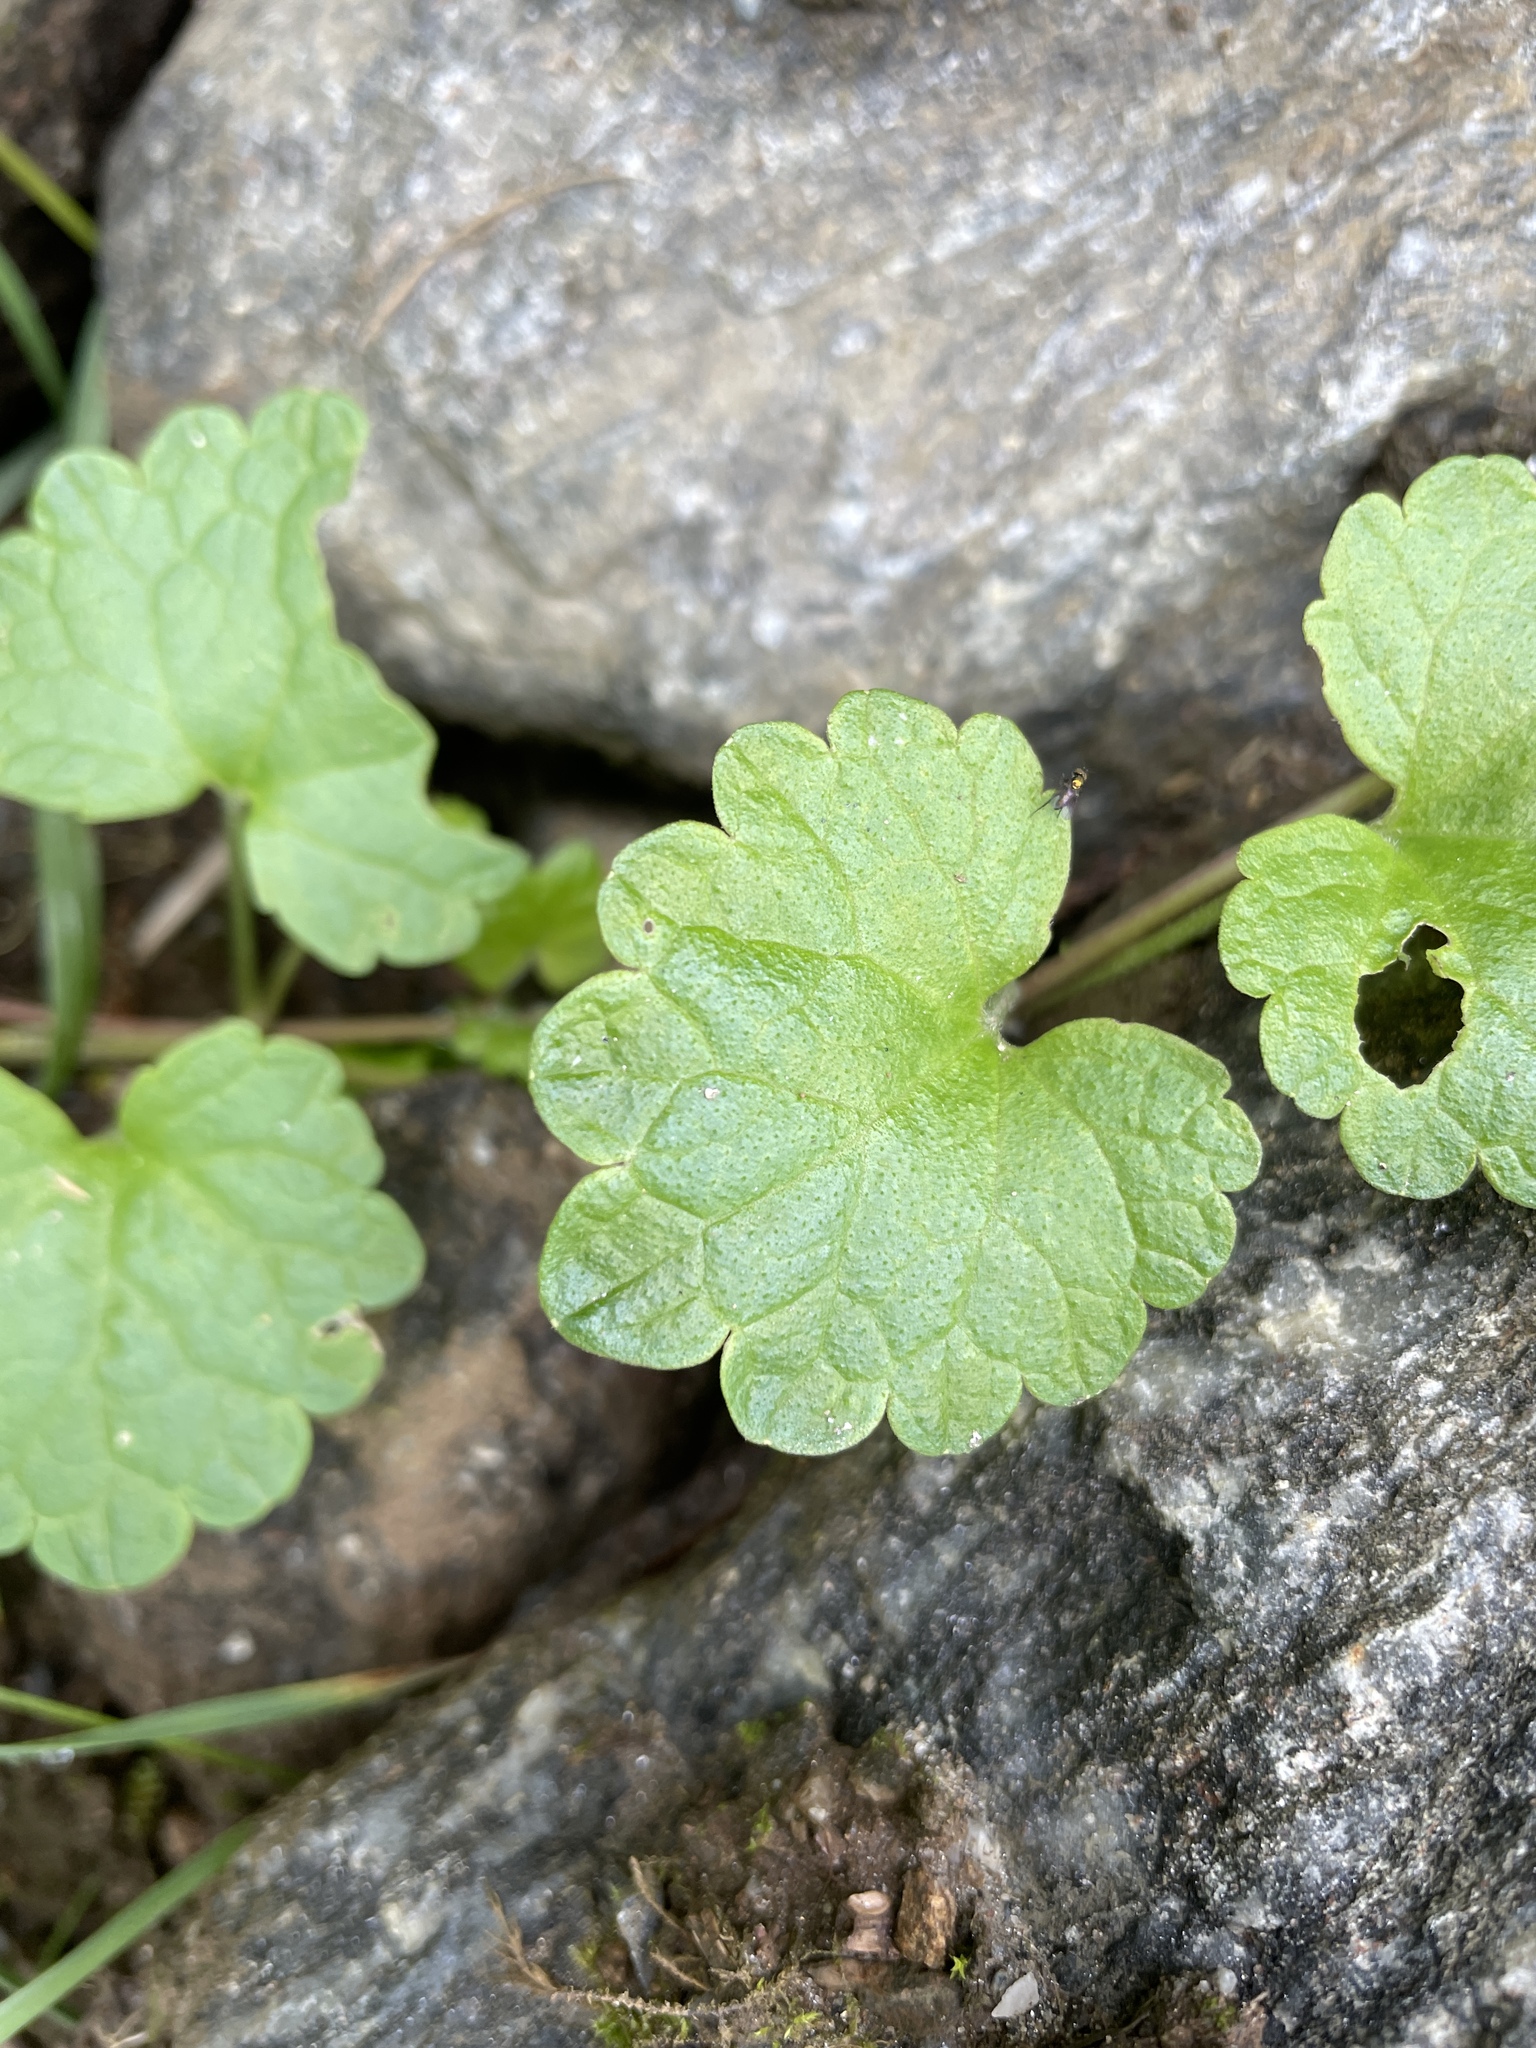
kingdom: Plantae
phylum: Tracheophyta
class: Magnoliopsida
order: Lamiales
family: Lamiaceae
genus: Glechoma
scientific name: Glechoma hederacea
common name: Ground ivy
